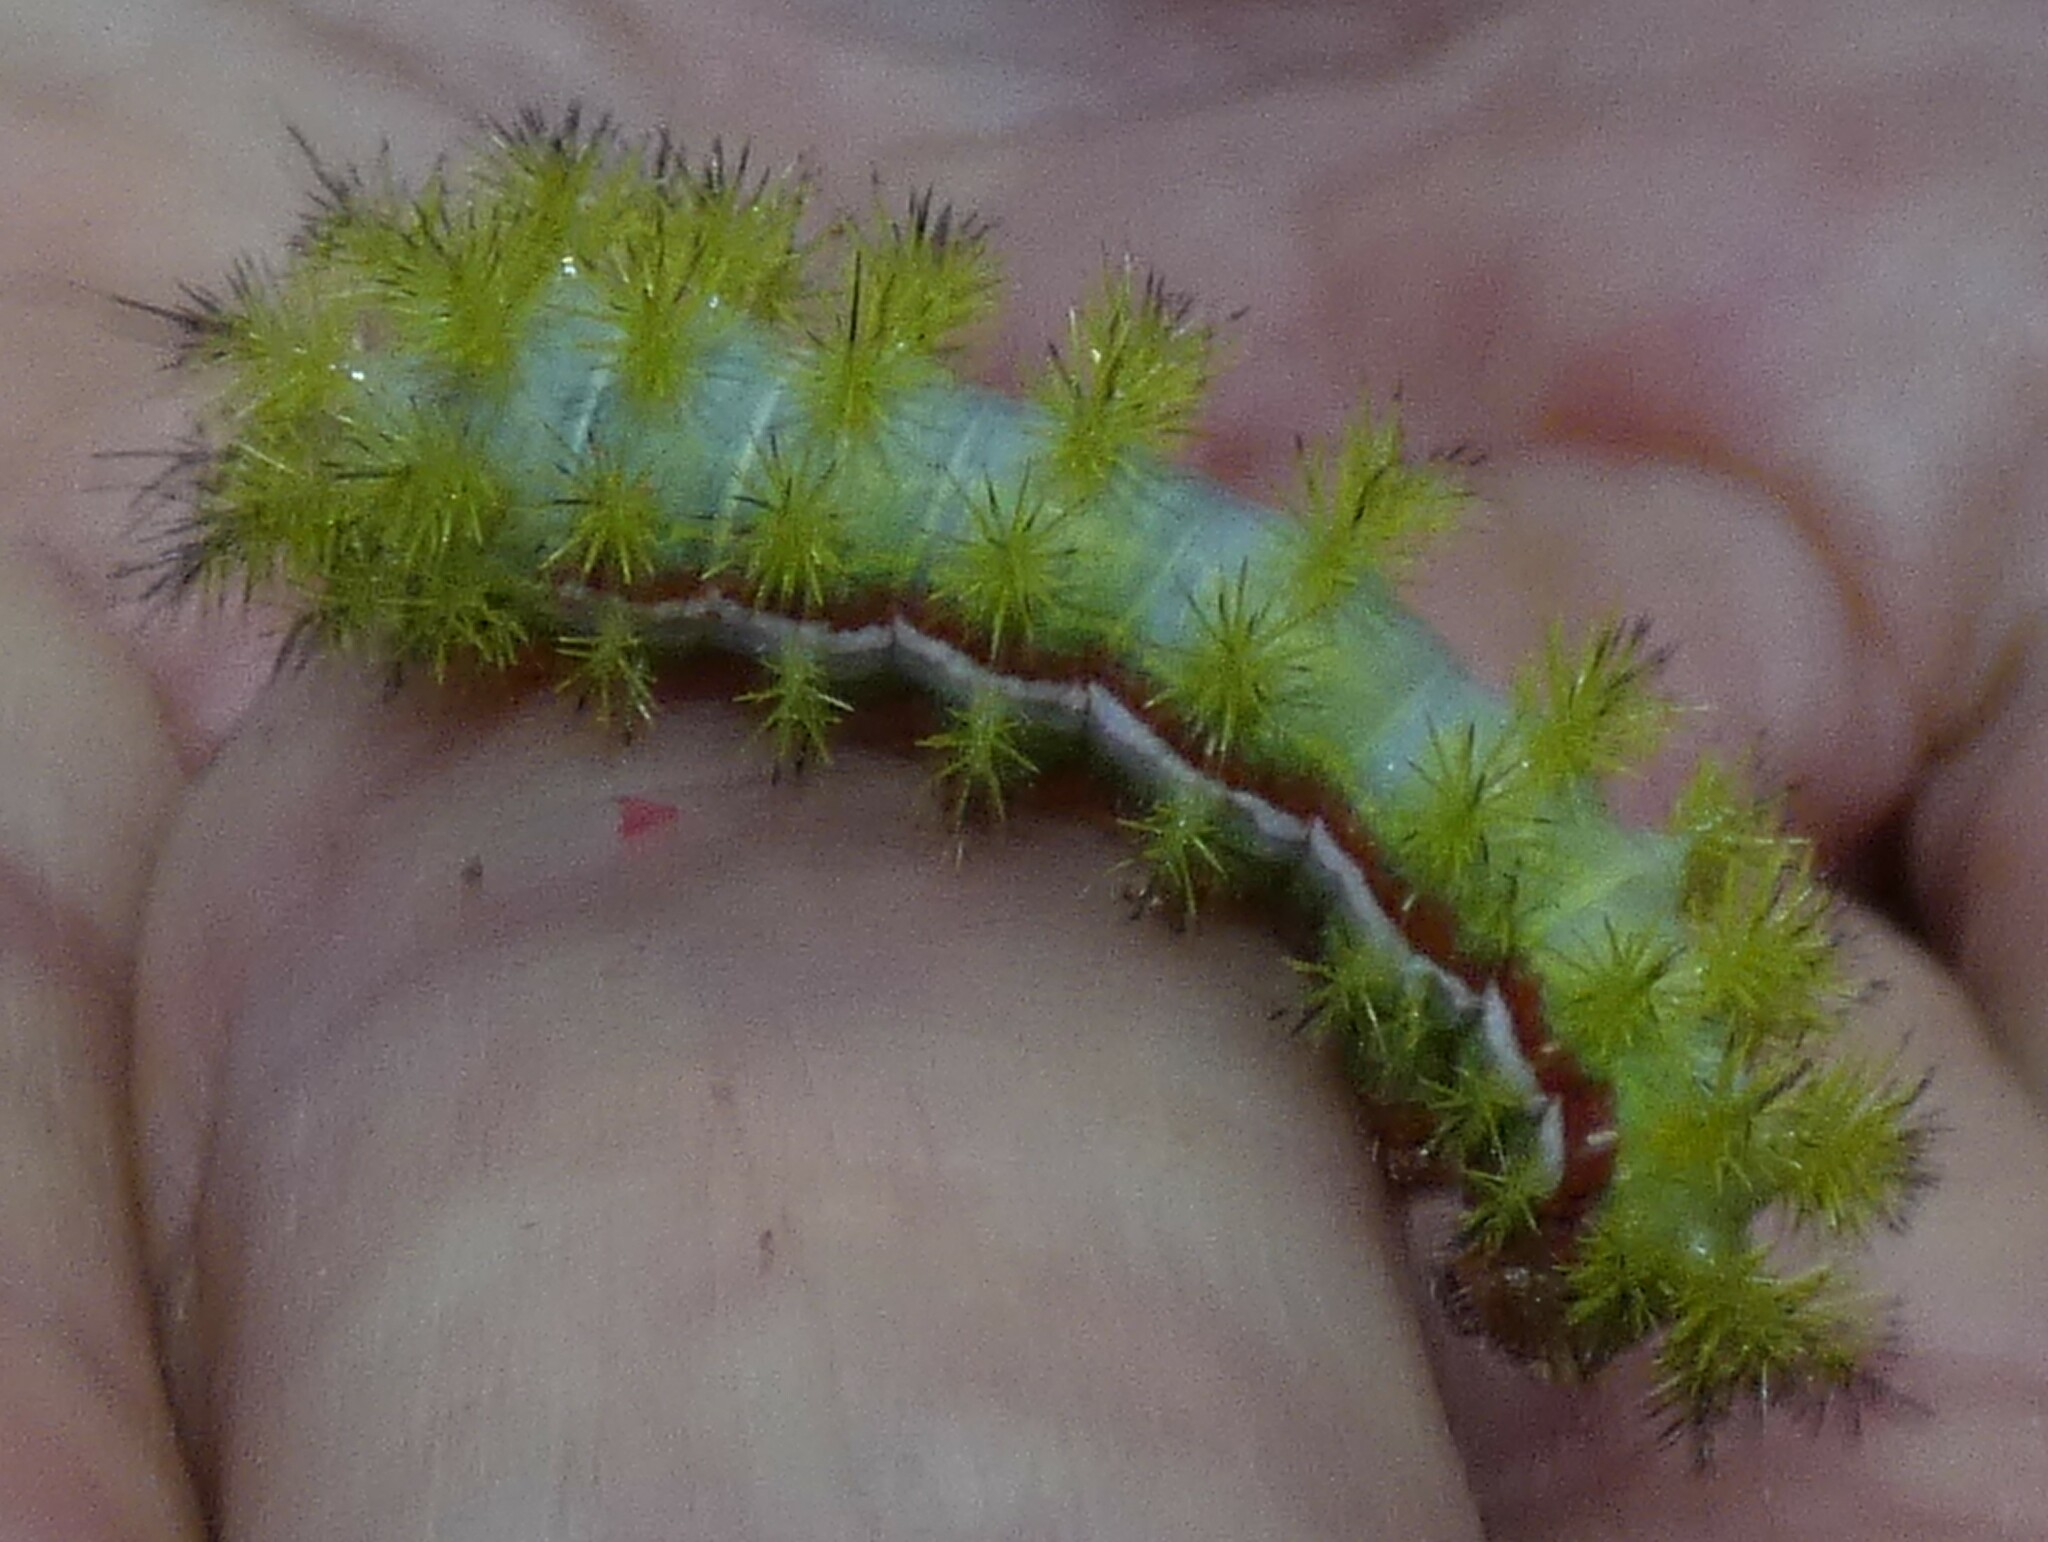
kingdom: Animalia
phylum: Arthropoda
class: Insecta
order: Lepidoptera
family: Saturniidae
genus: Automeris
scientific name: Automeris io
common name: Io moth
